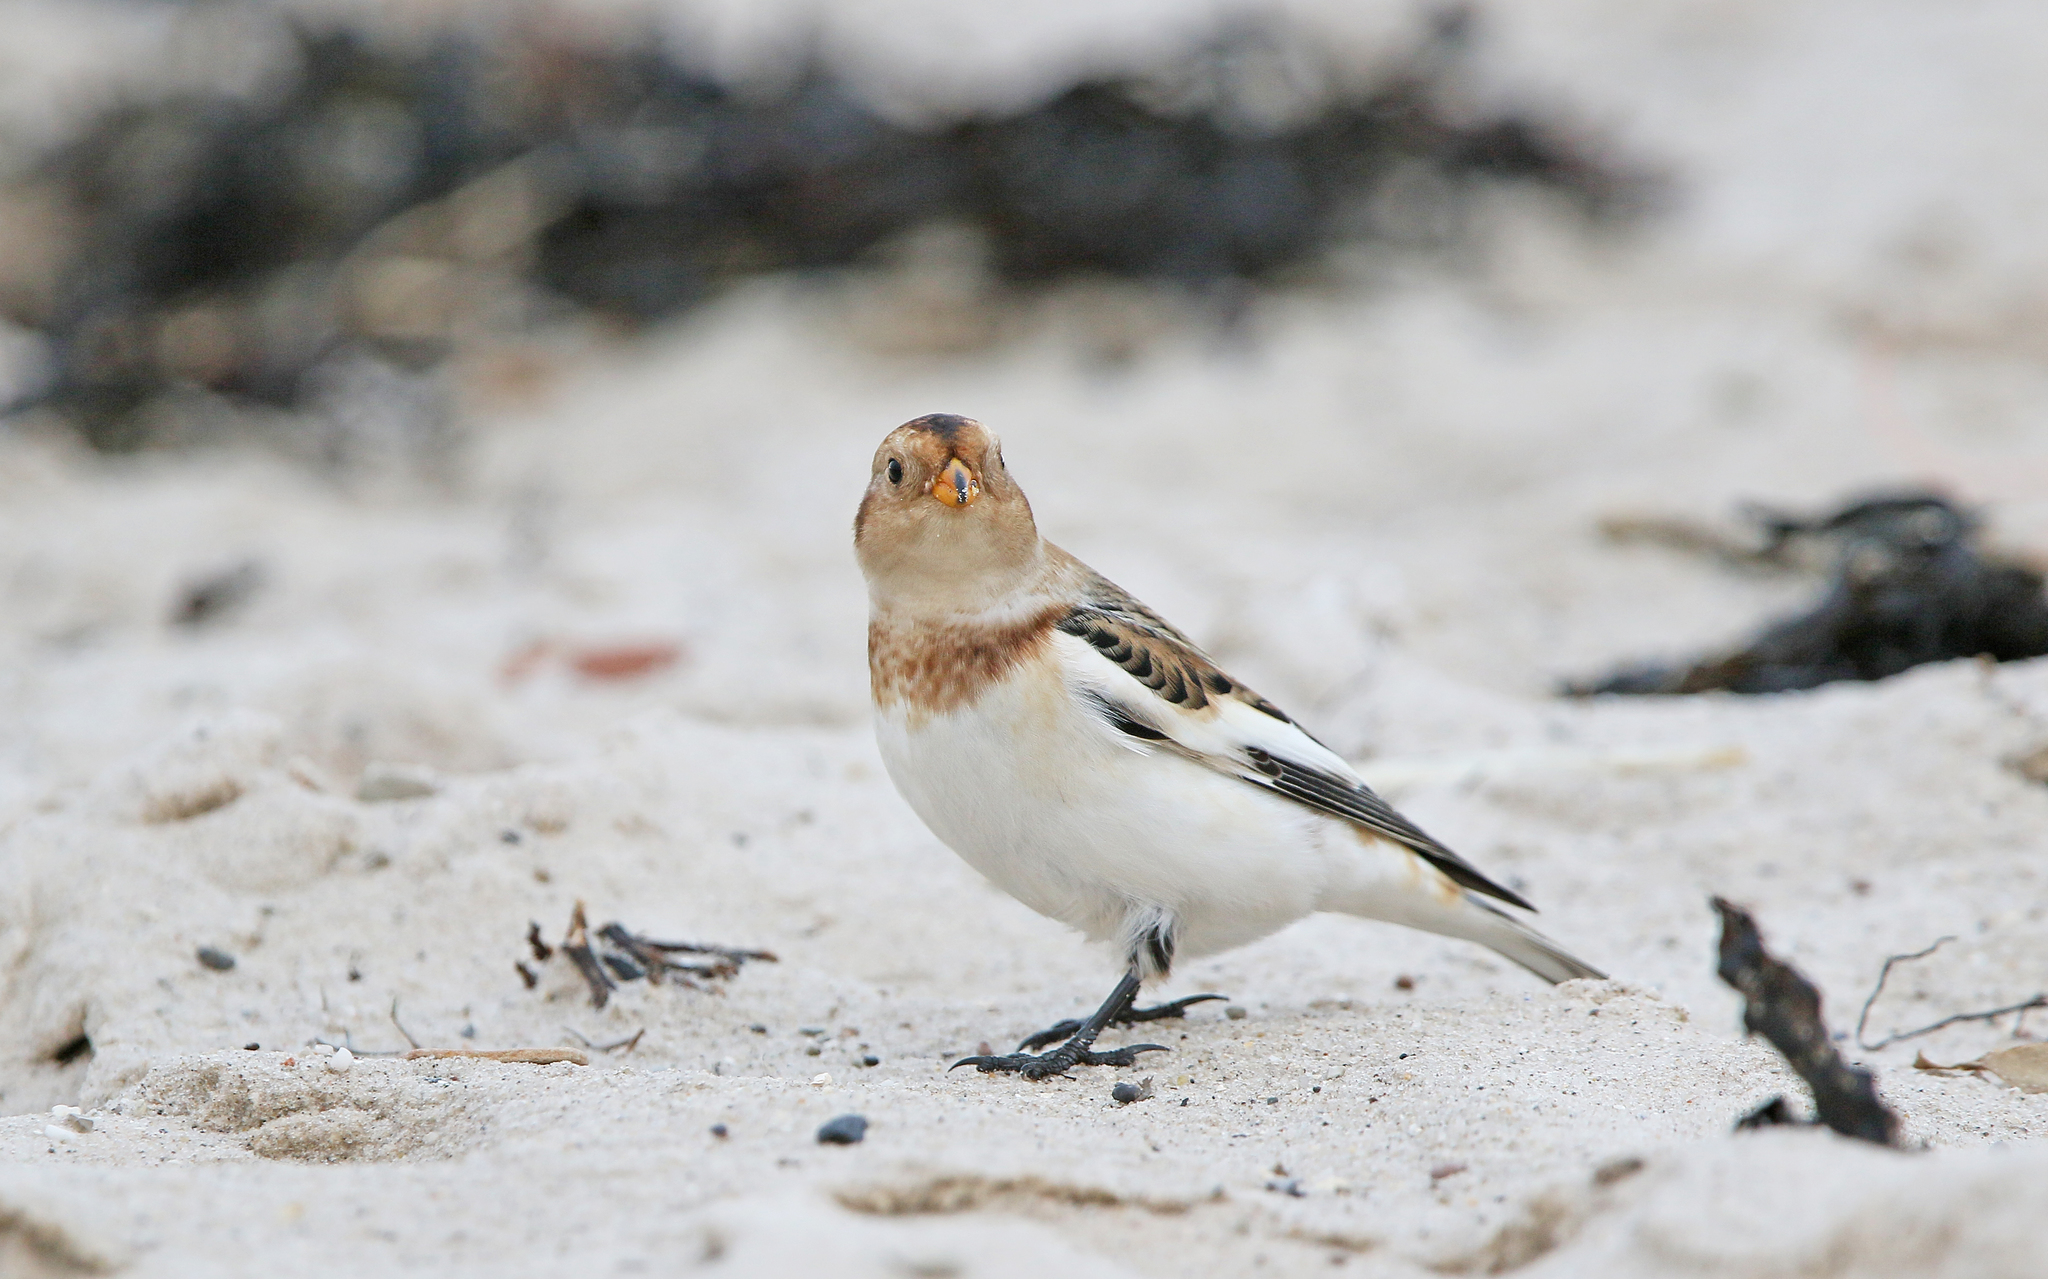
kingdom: Animalia
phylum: Chordata
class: Aves
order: Passeriformes
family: Calcariidae
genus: Plectrophenax
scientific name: Plectrophenax nivalis
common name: Snow bunting
